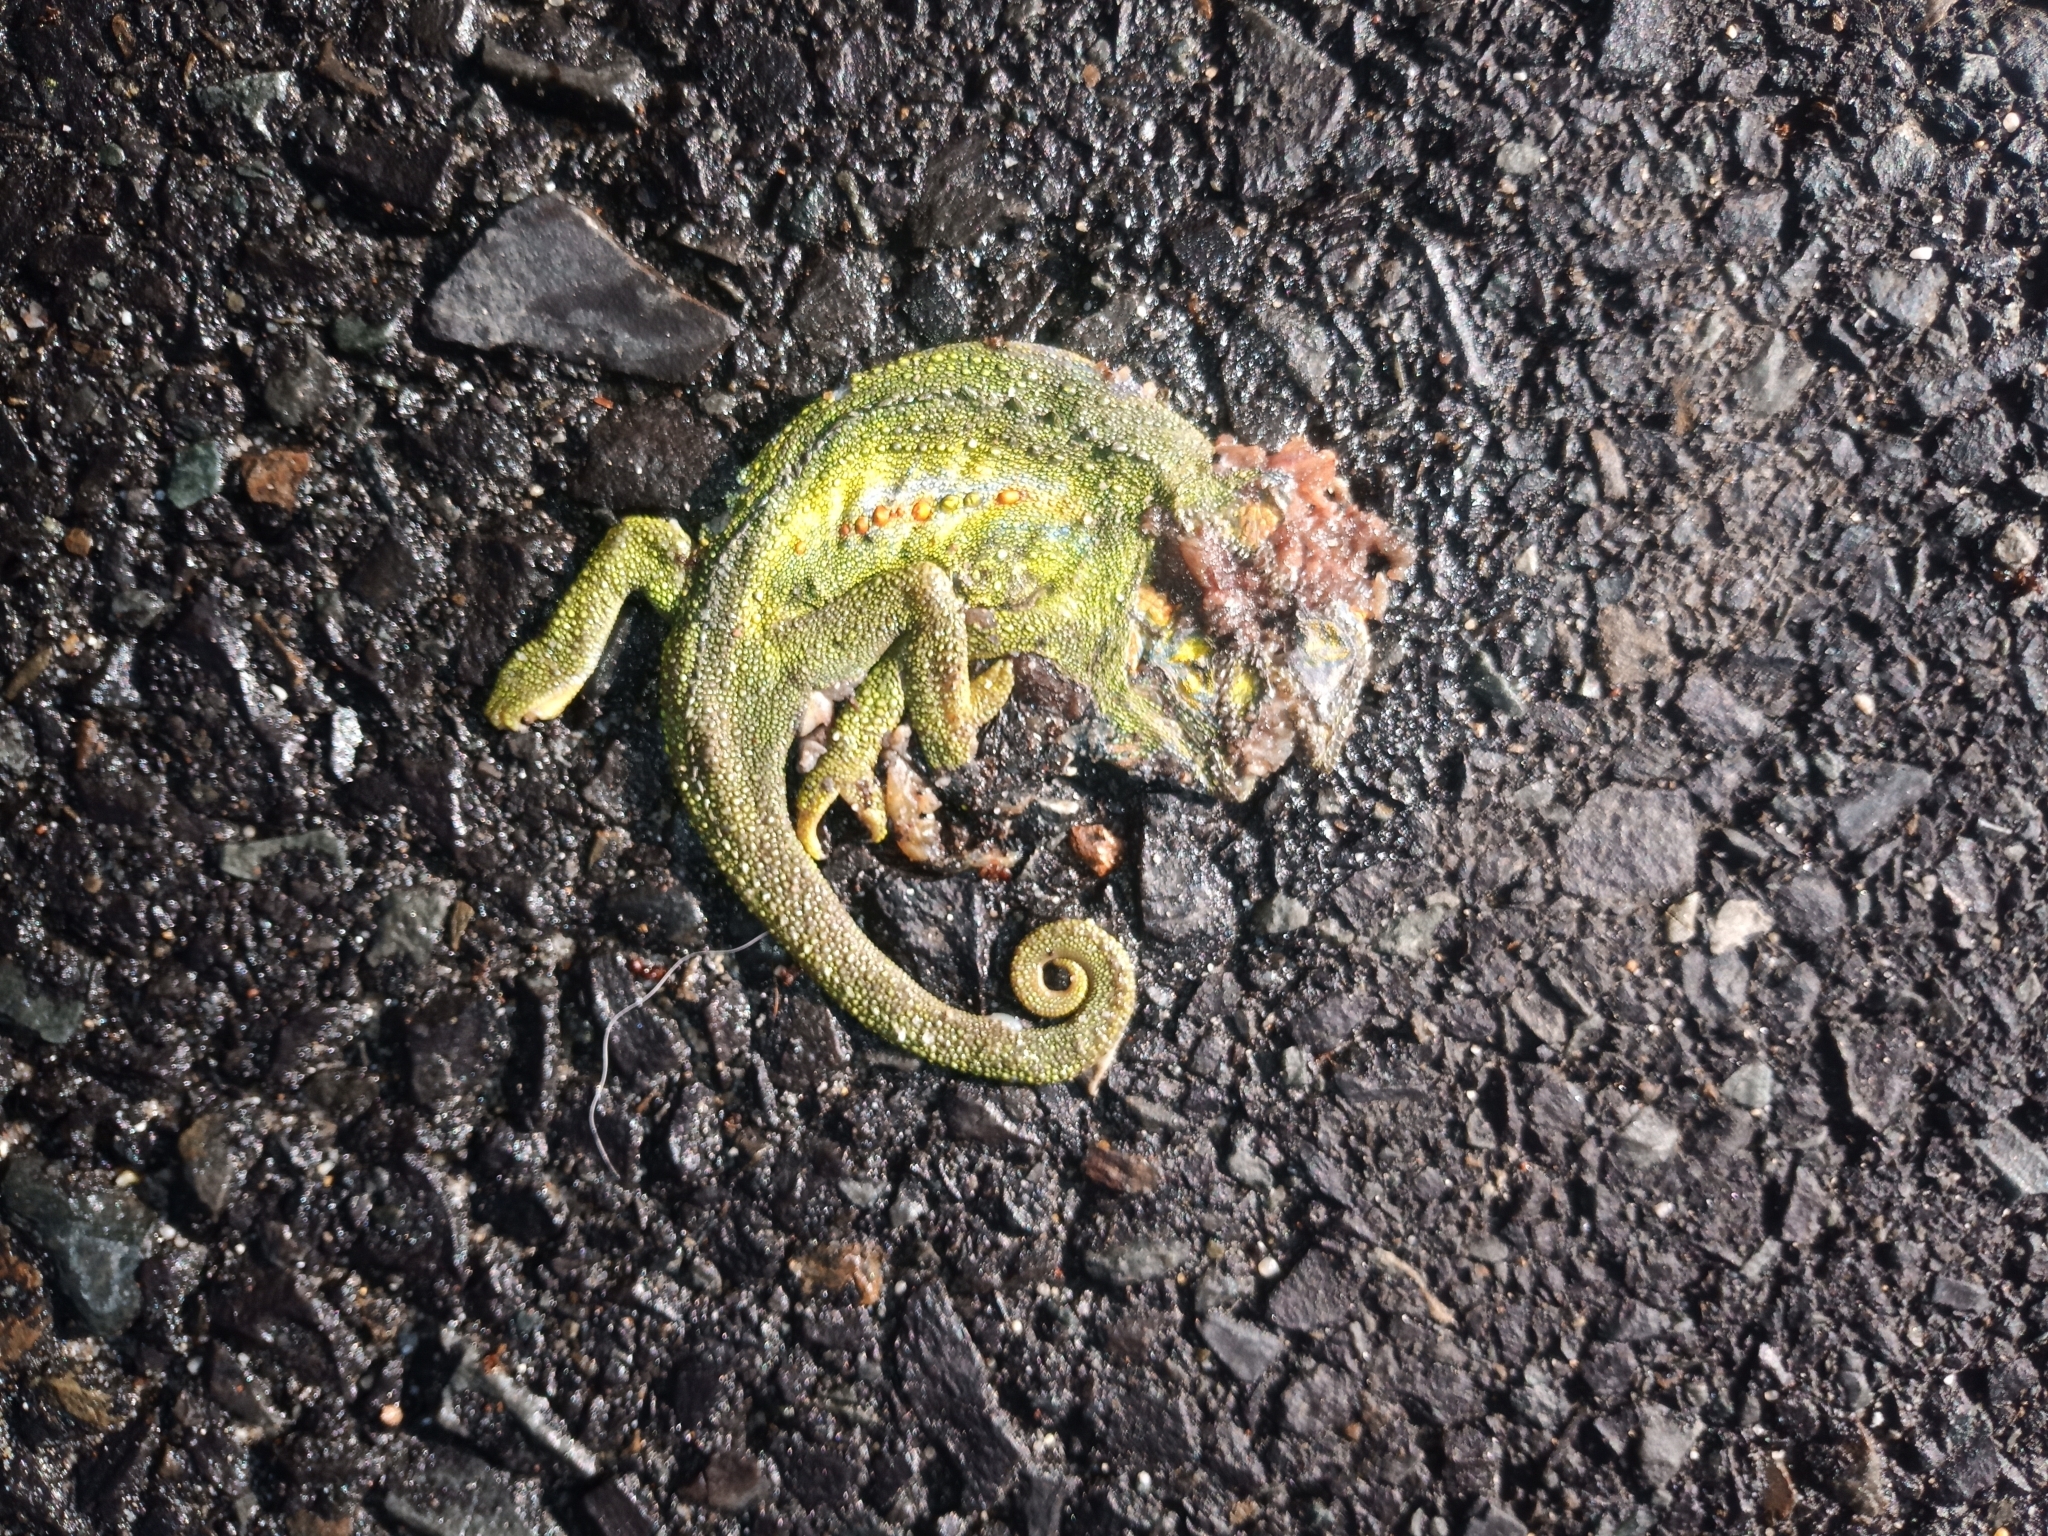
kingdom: Animalia
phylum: Chordata
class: Squamata
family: Chamaeleonidae
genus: Bradypodion
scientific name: Bradypodion pumilum
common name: Cape dwarf chameleon
